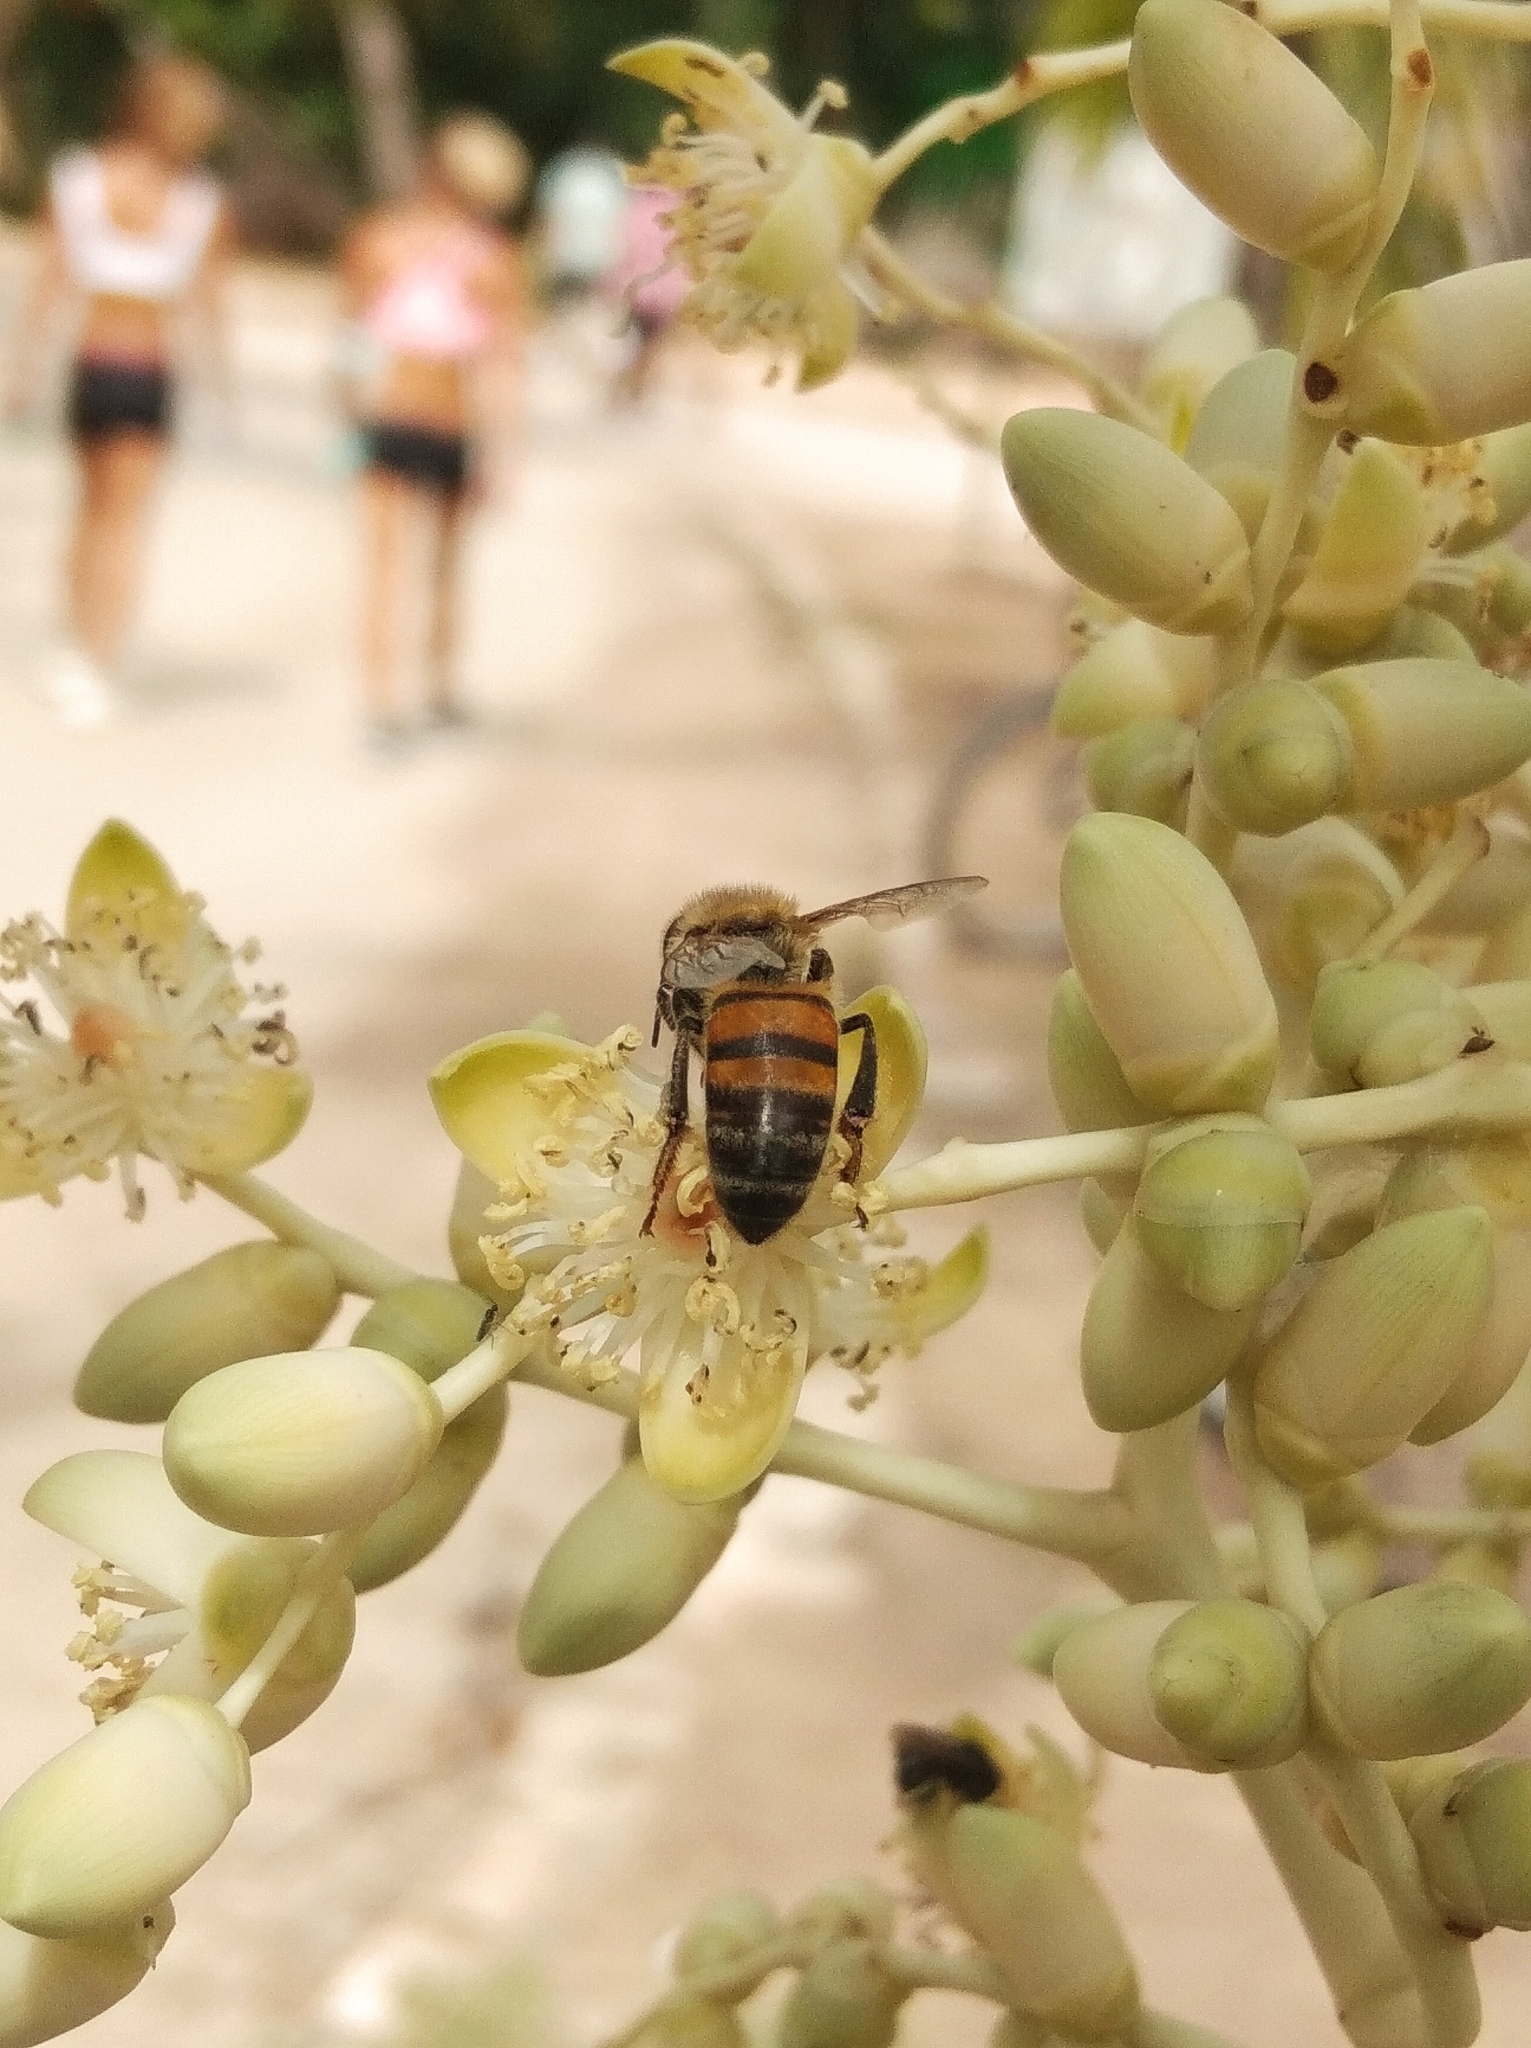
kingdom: Animalia
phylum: Arthropoda
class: Insecta
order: Hymenoptera
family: Apidae
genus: Apis
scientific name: Apis mellifera
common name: Honey bee
